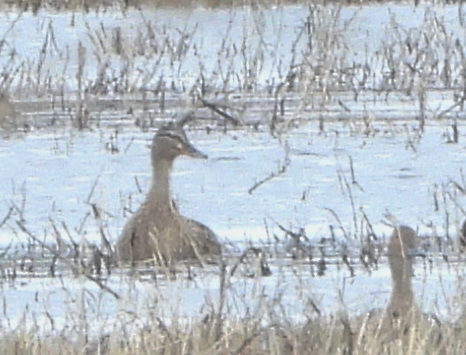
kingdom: Animalia
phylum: Chordata
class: Aves
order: Anseriformes
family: Anatidae
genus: Mareca
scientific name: Mareca strepera
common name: Gadwall
